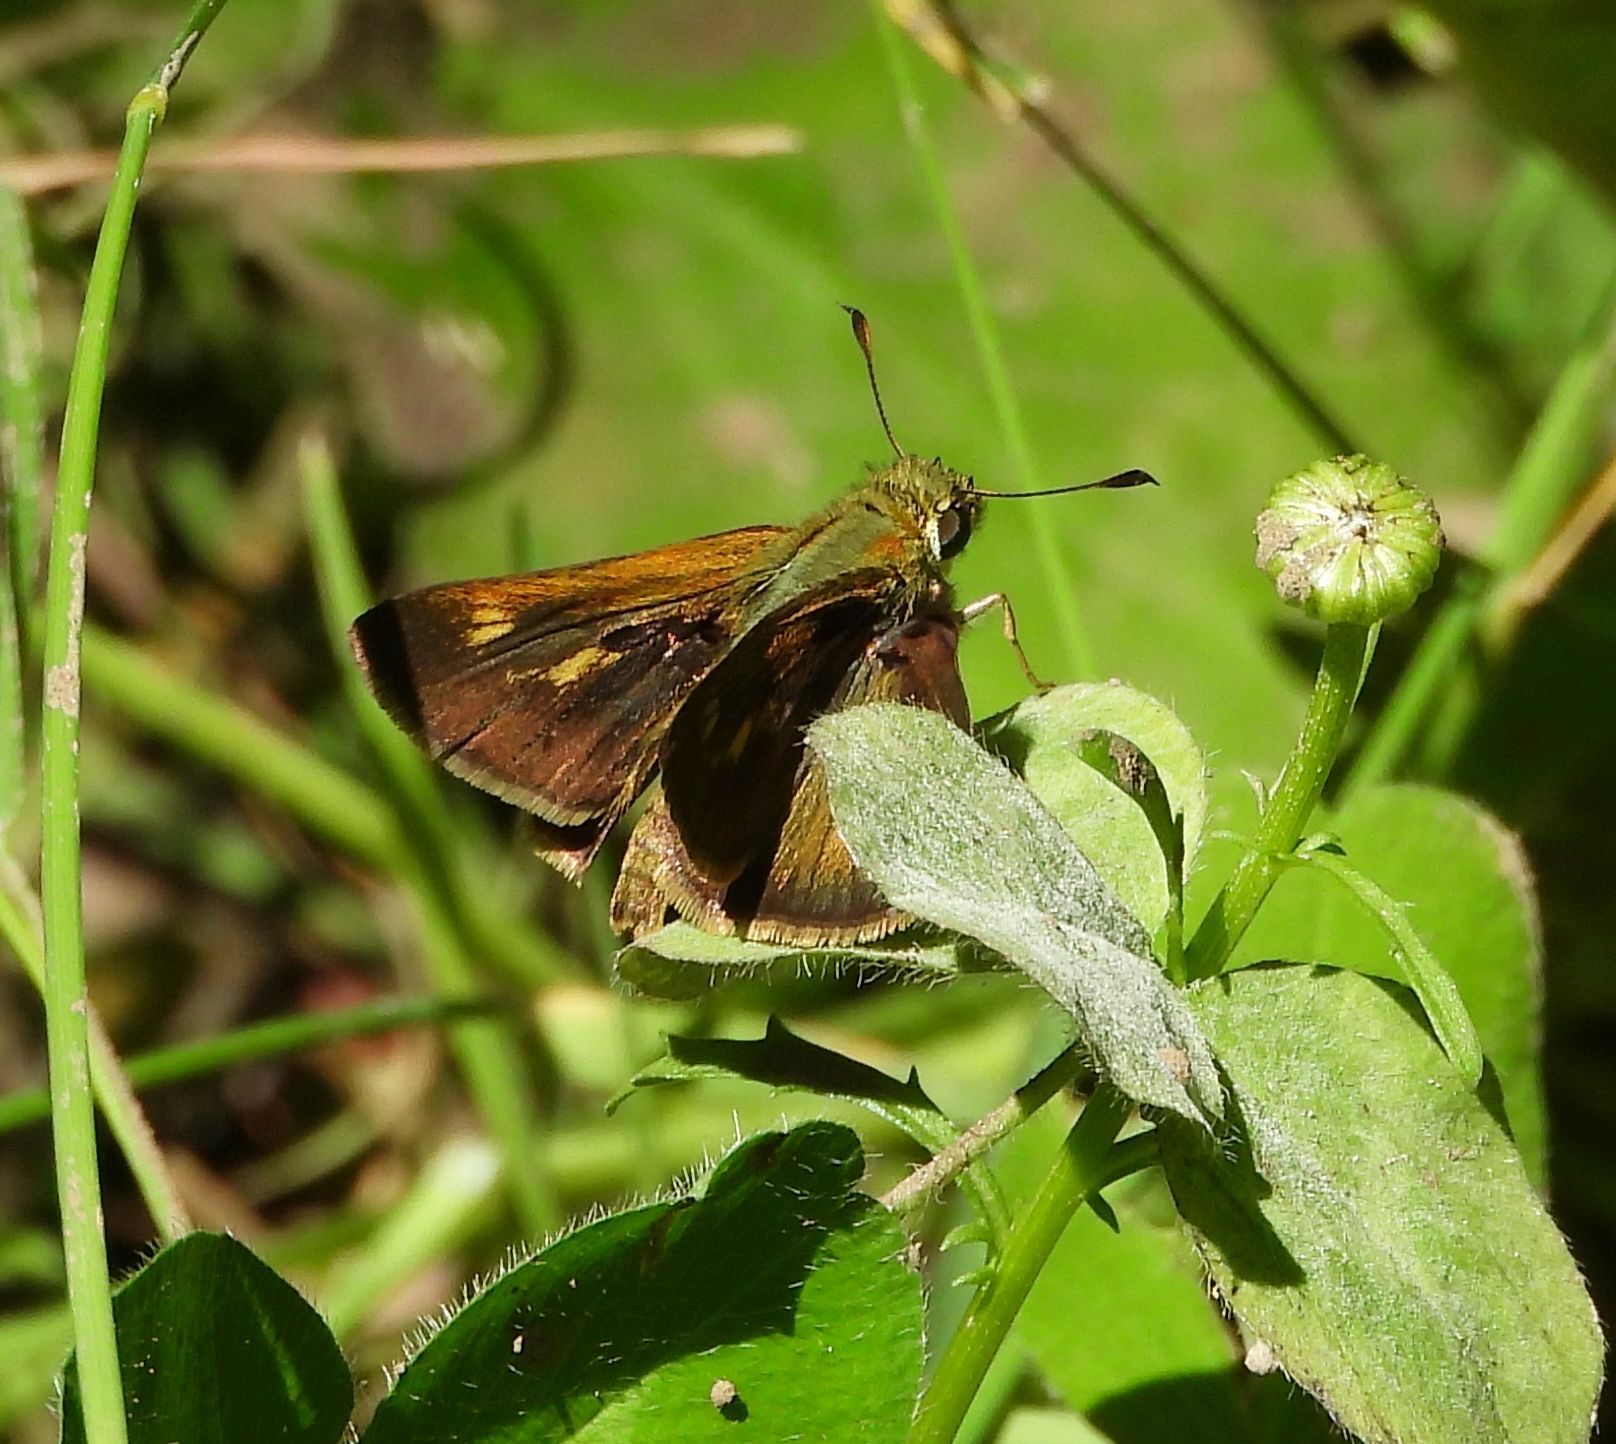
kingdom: Animalia
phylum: Arthropoda
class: Insecta
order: Lepidoptera
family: Hesperiidae
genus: Polites
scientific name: Polites egeremet
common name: Northern broken-dash
